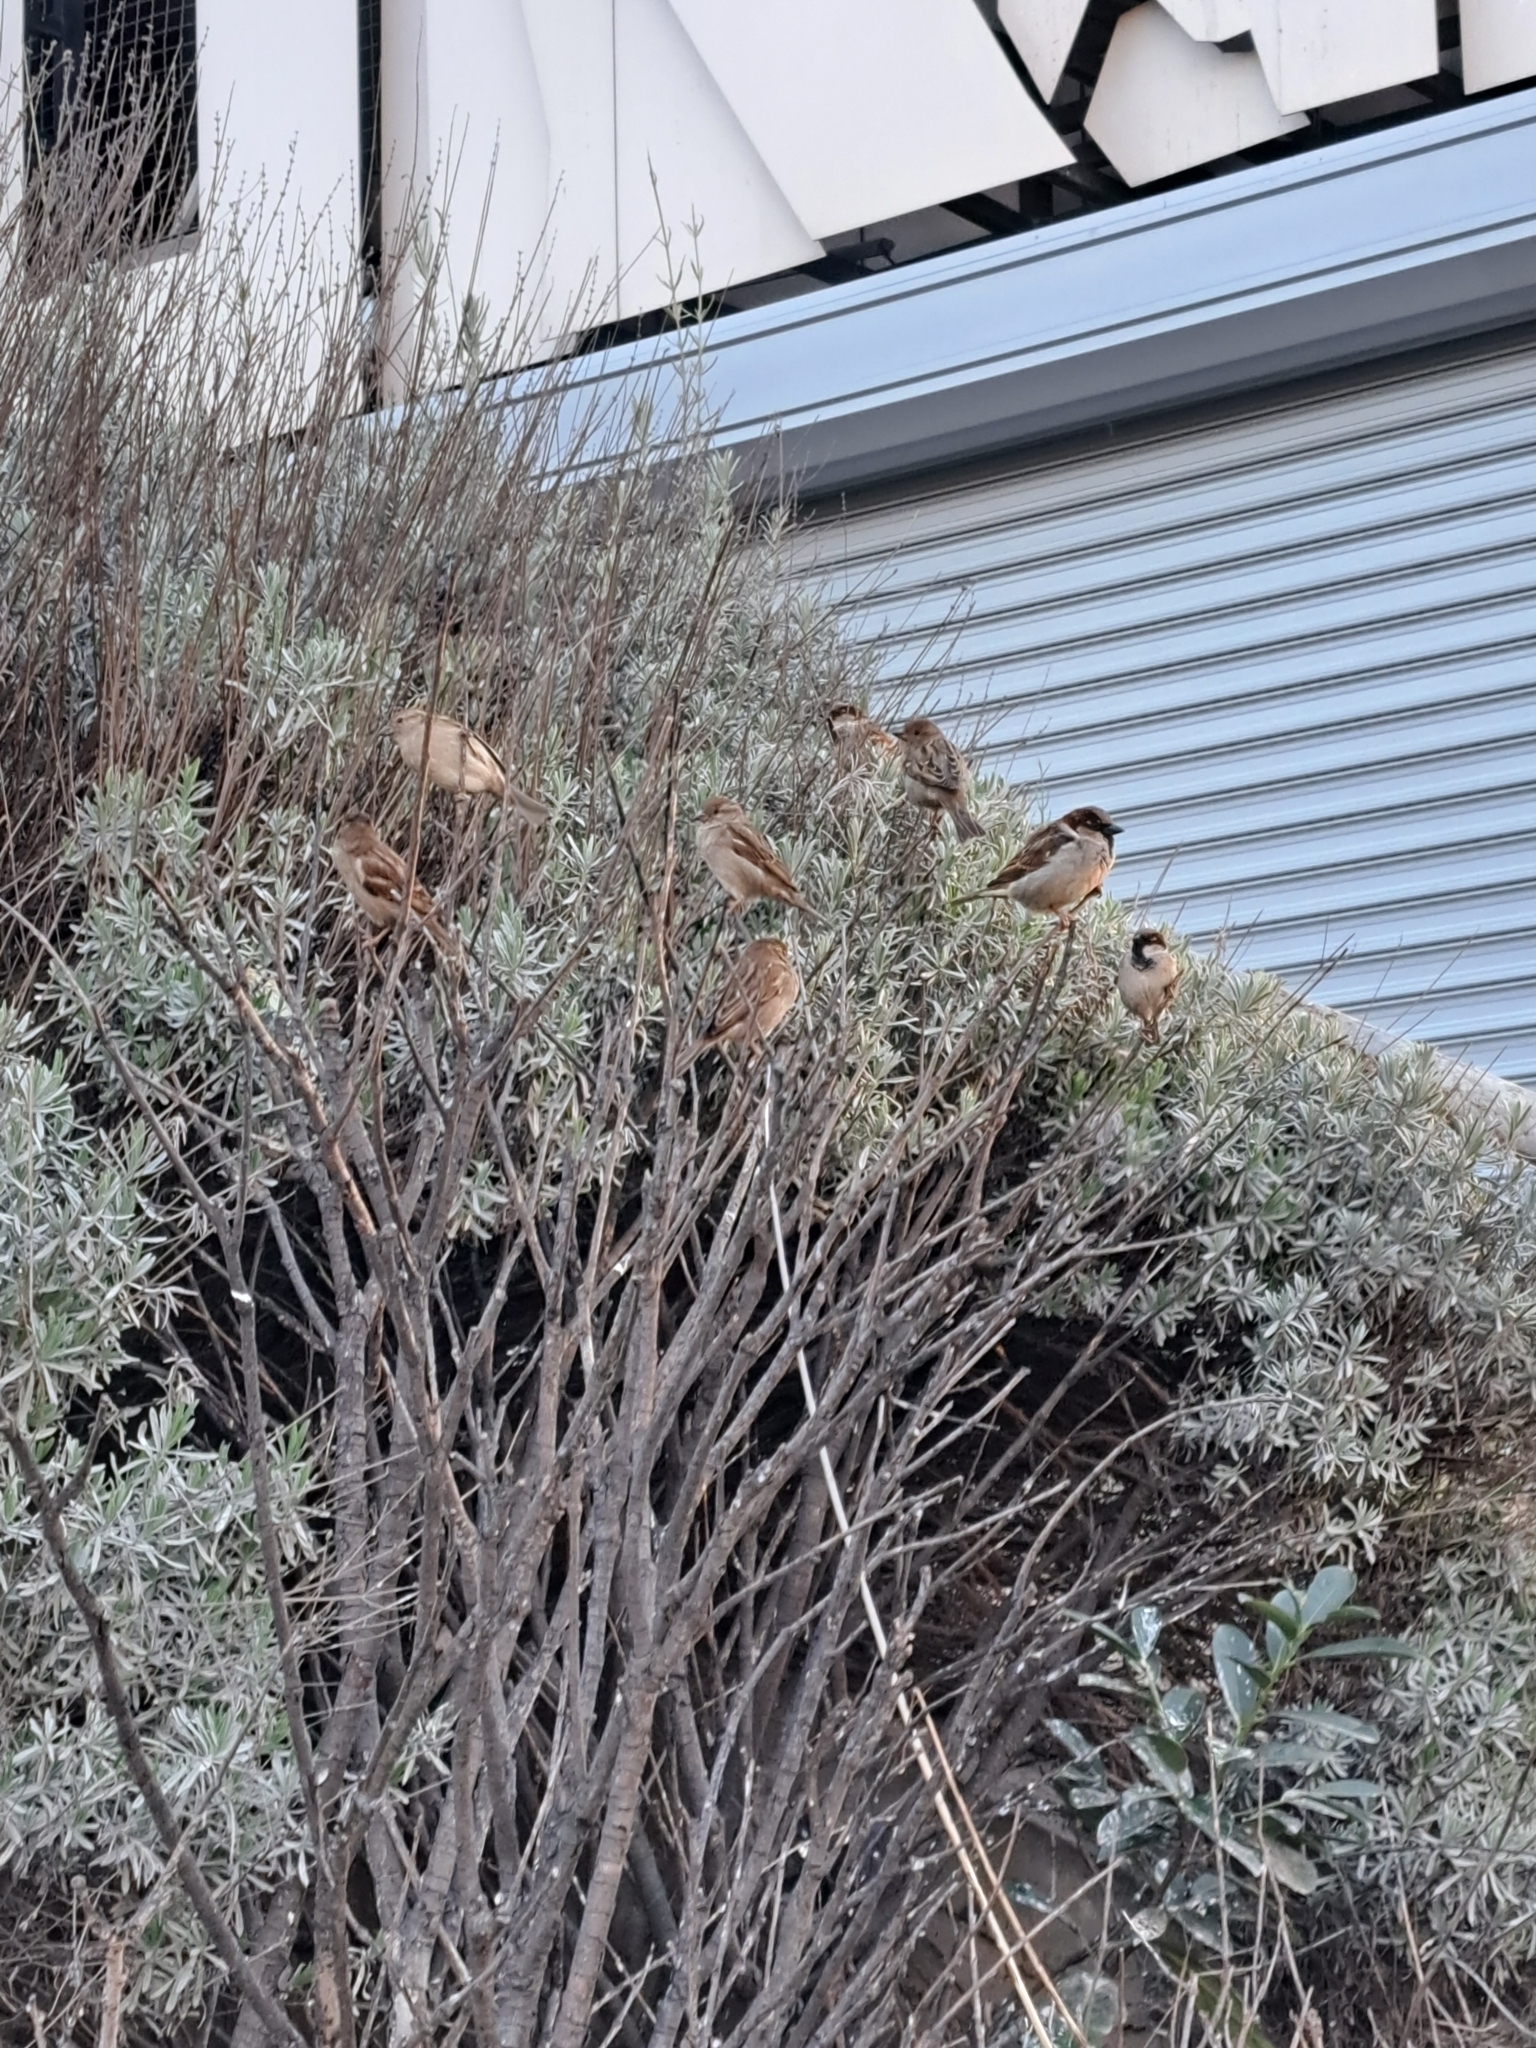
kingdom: Animalia
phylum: Chordata
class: Aves
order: Passeriformes
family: Passeridae
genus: Passer
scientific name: Passer domesticus
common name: House sparrow
